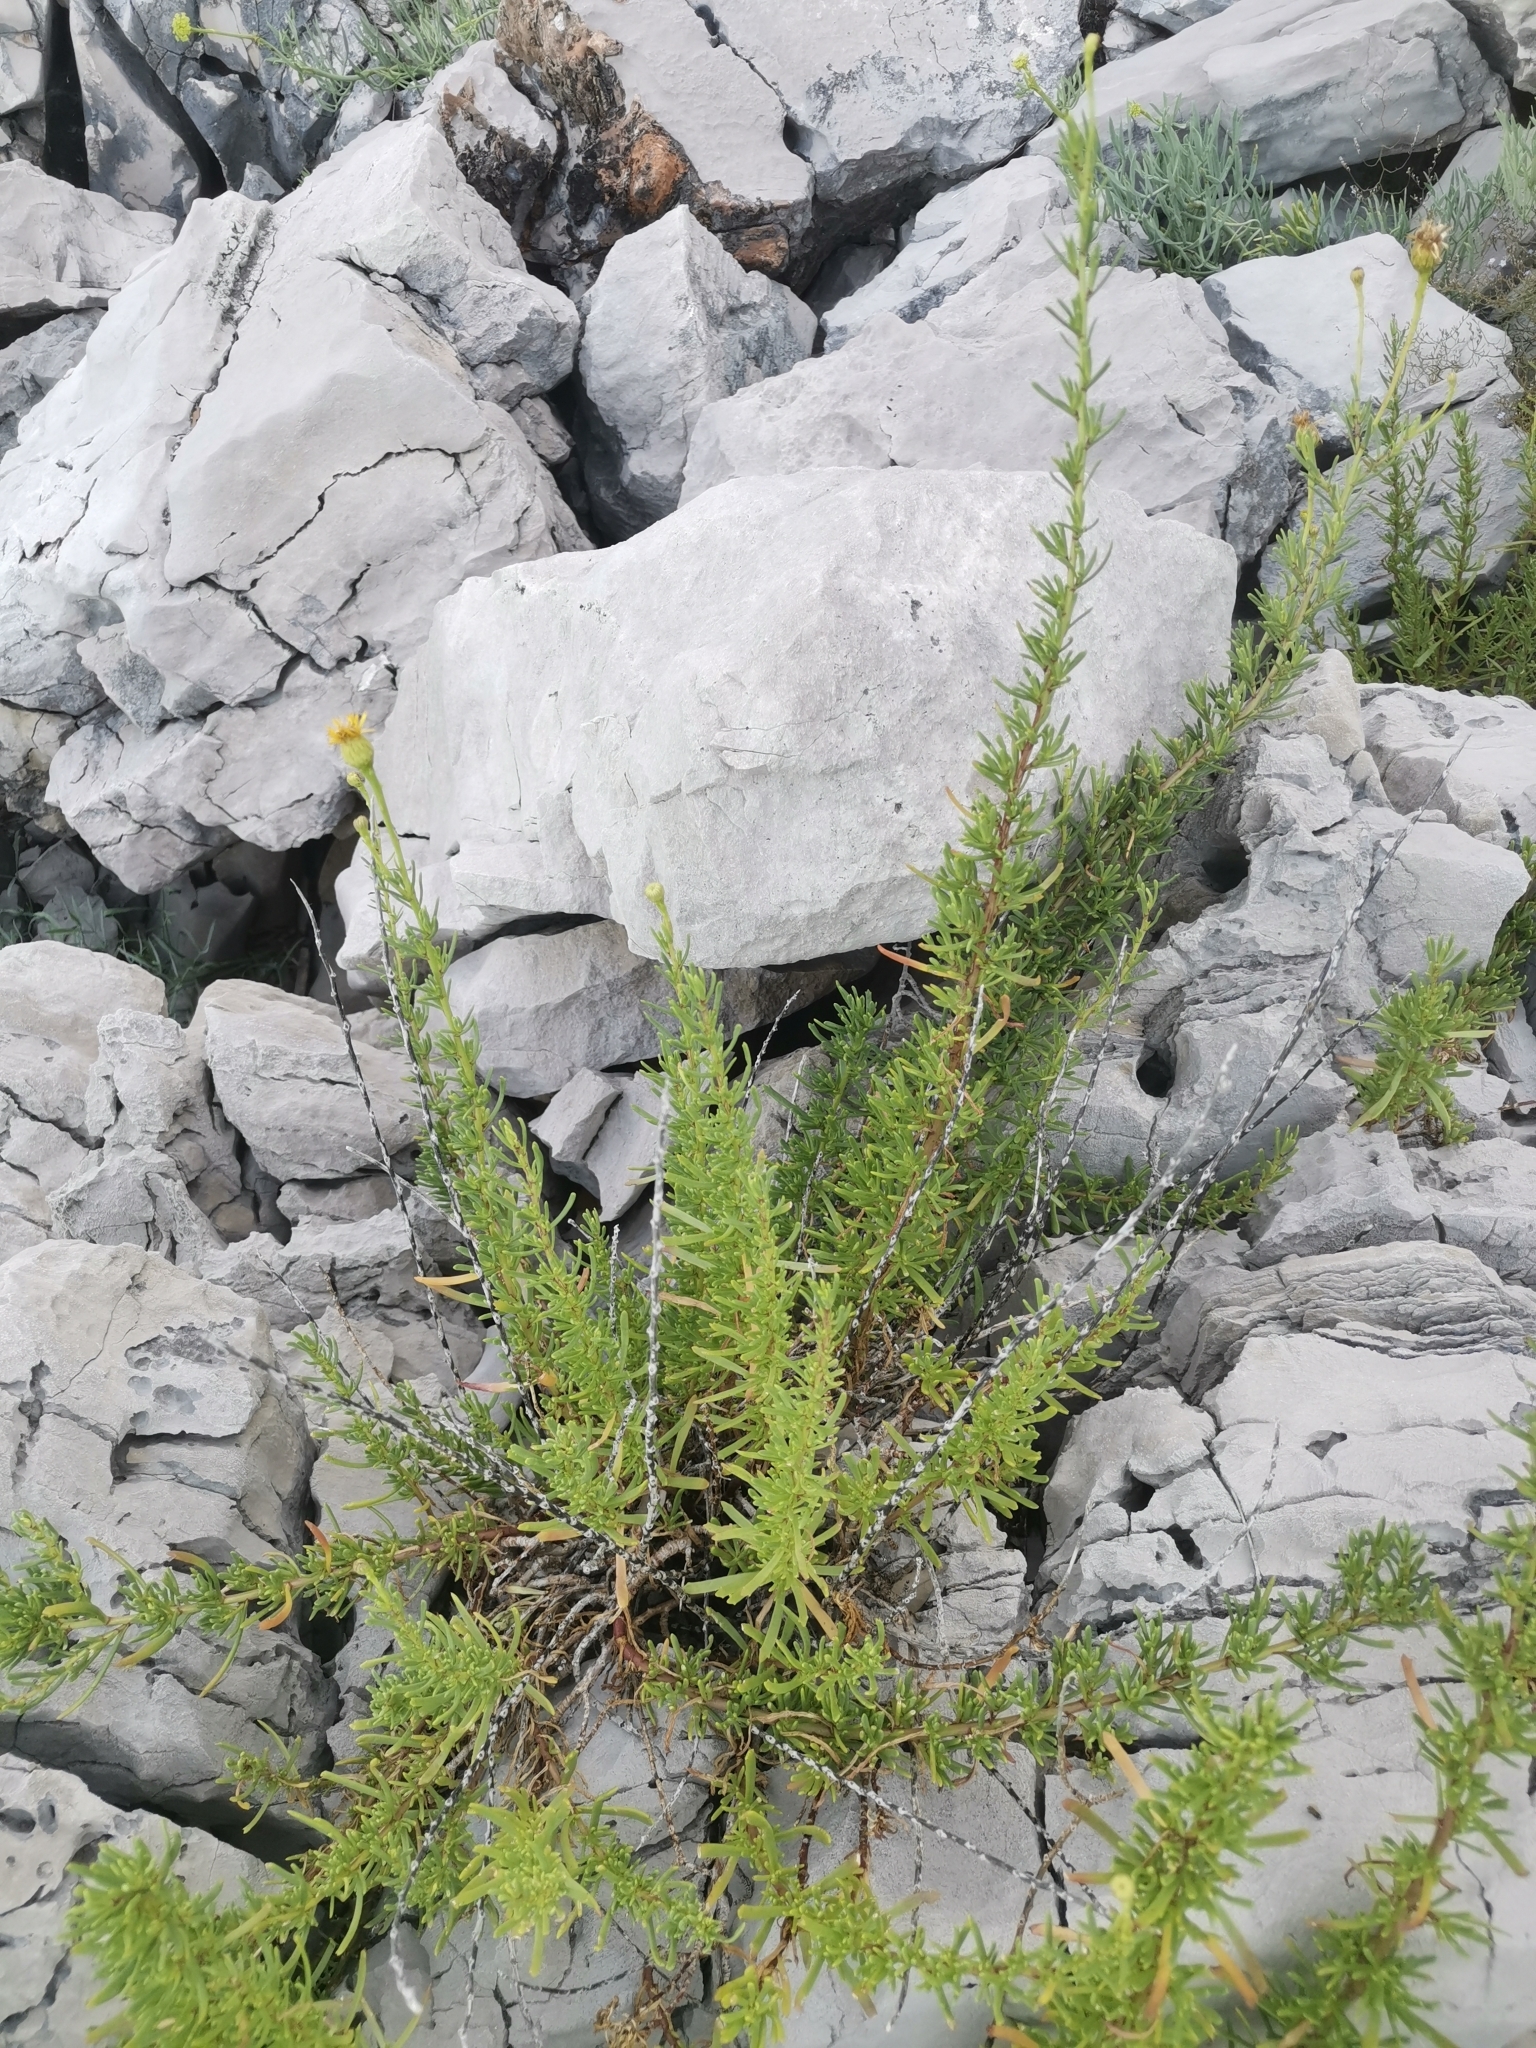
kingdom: Plantae
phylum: Tracheophyta
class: Magnoliopsida
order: Asterales
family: Asteraceae
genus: Limbarda
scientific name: Limbarda crithmoides
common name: Golden samphire
